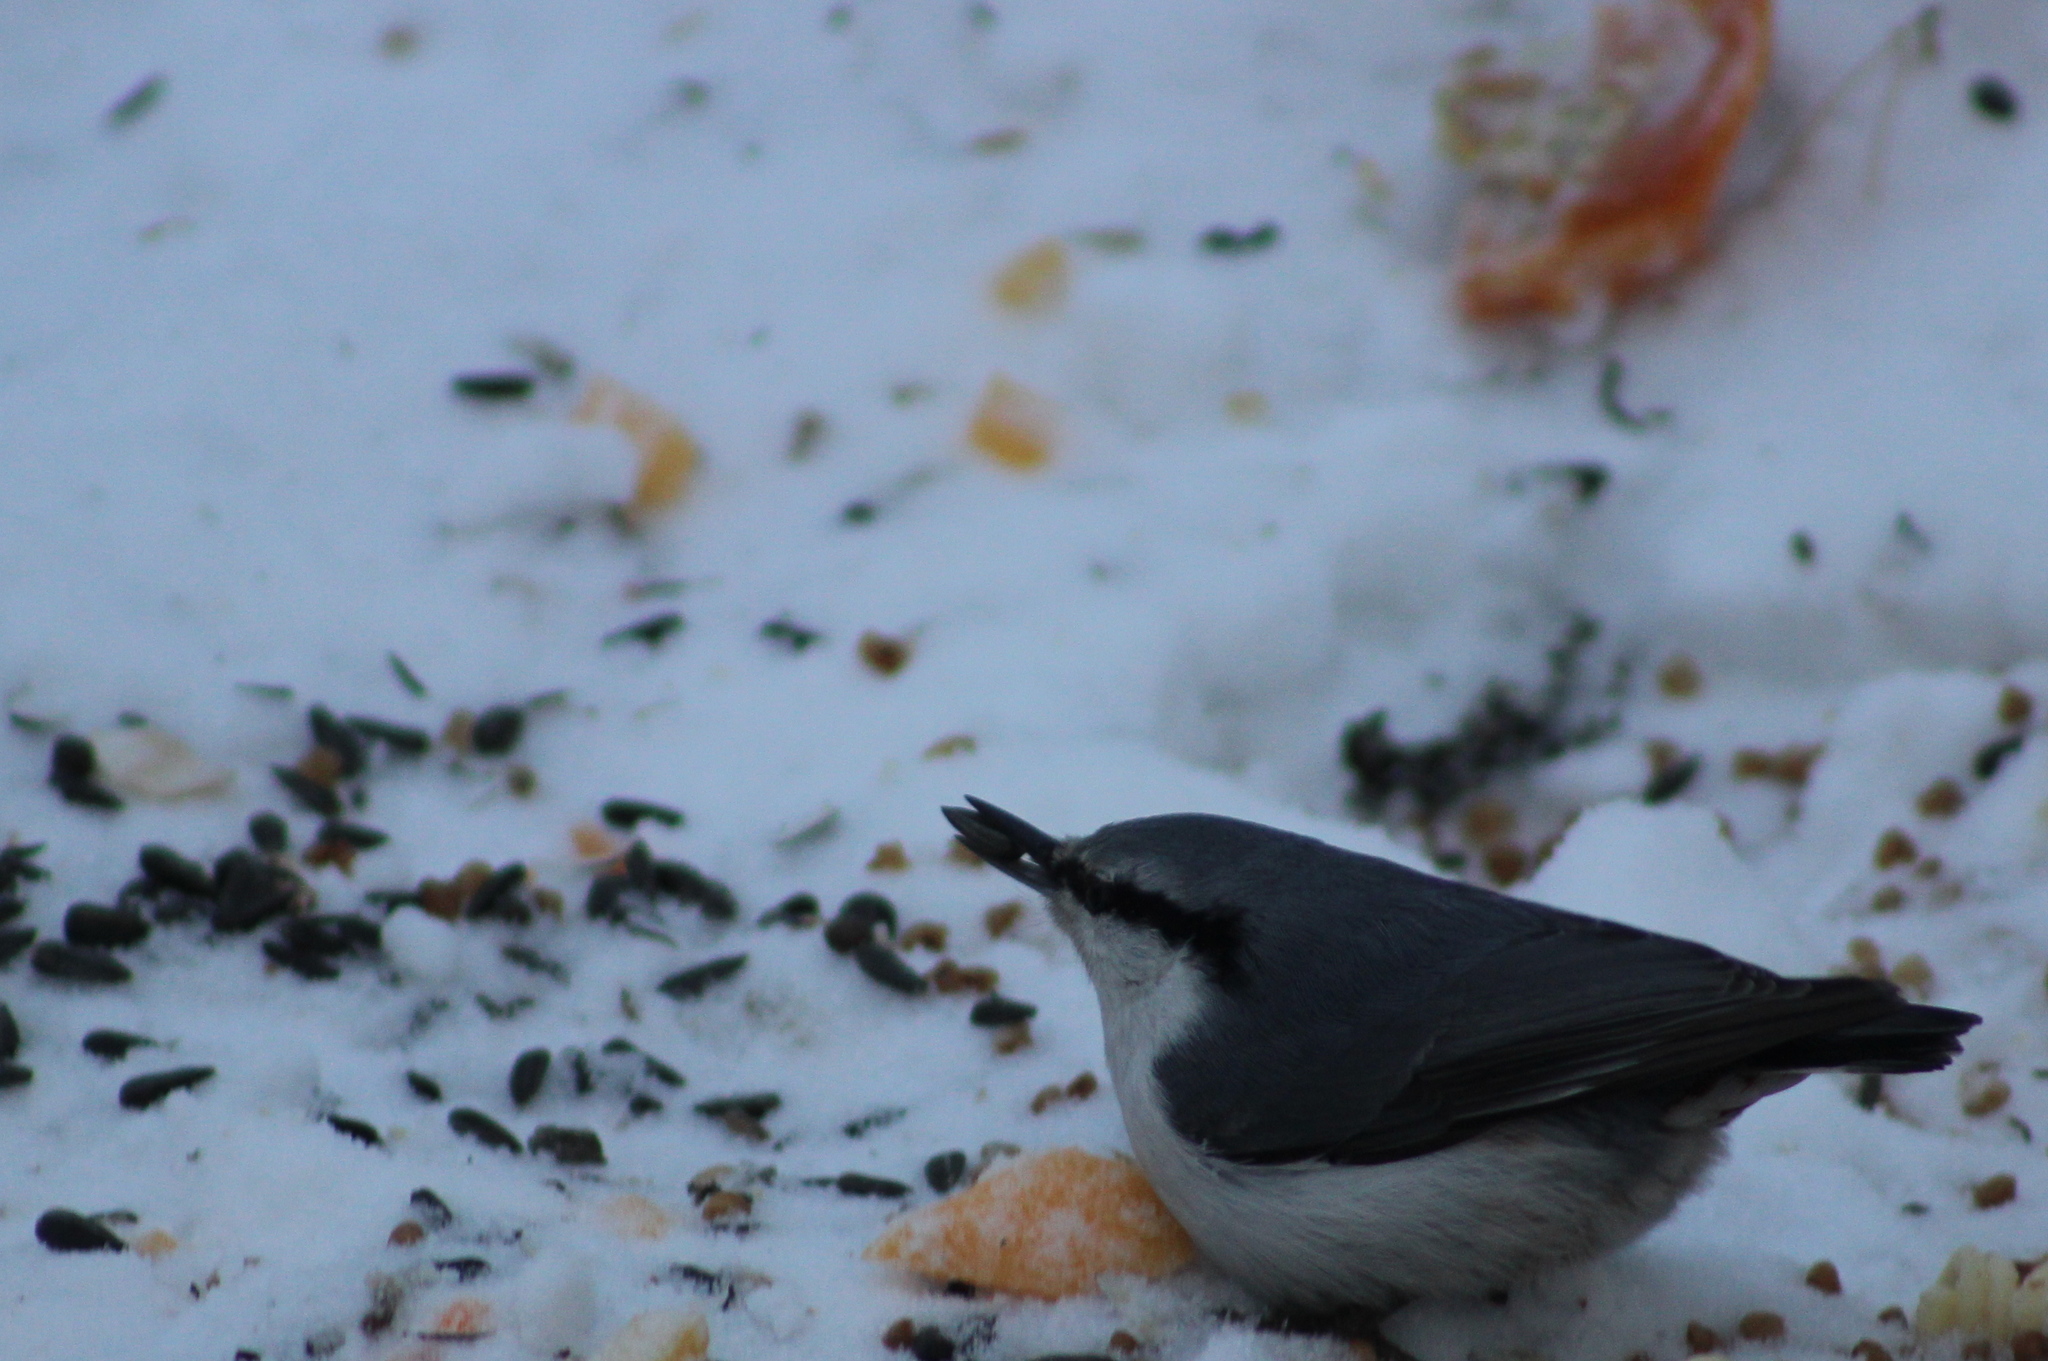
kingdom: Animalia
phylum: Chordata
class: Aves
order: Passeriformes
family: Sittidae
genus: Sitta
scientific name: Sitta europaea
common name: Eurasian nuthatch
